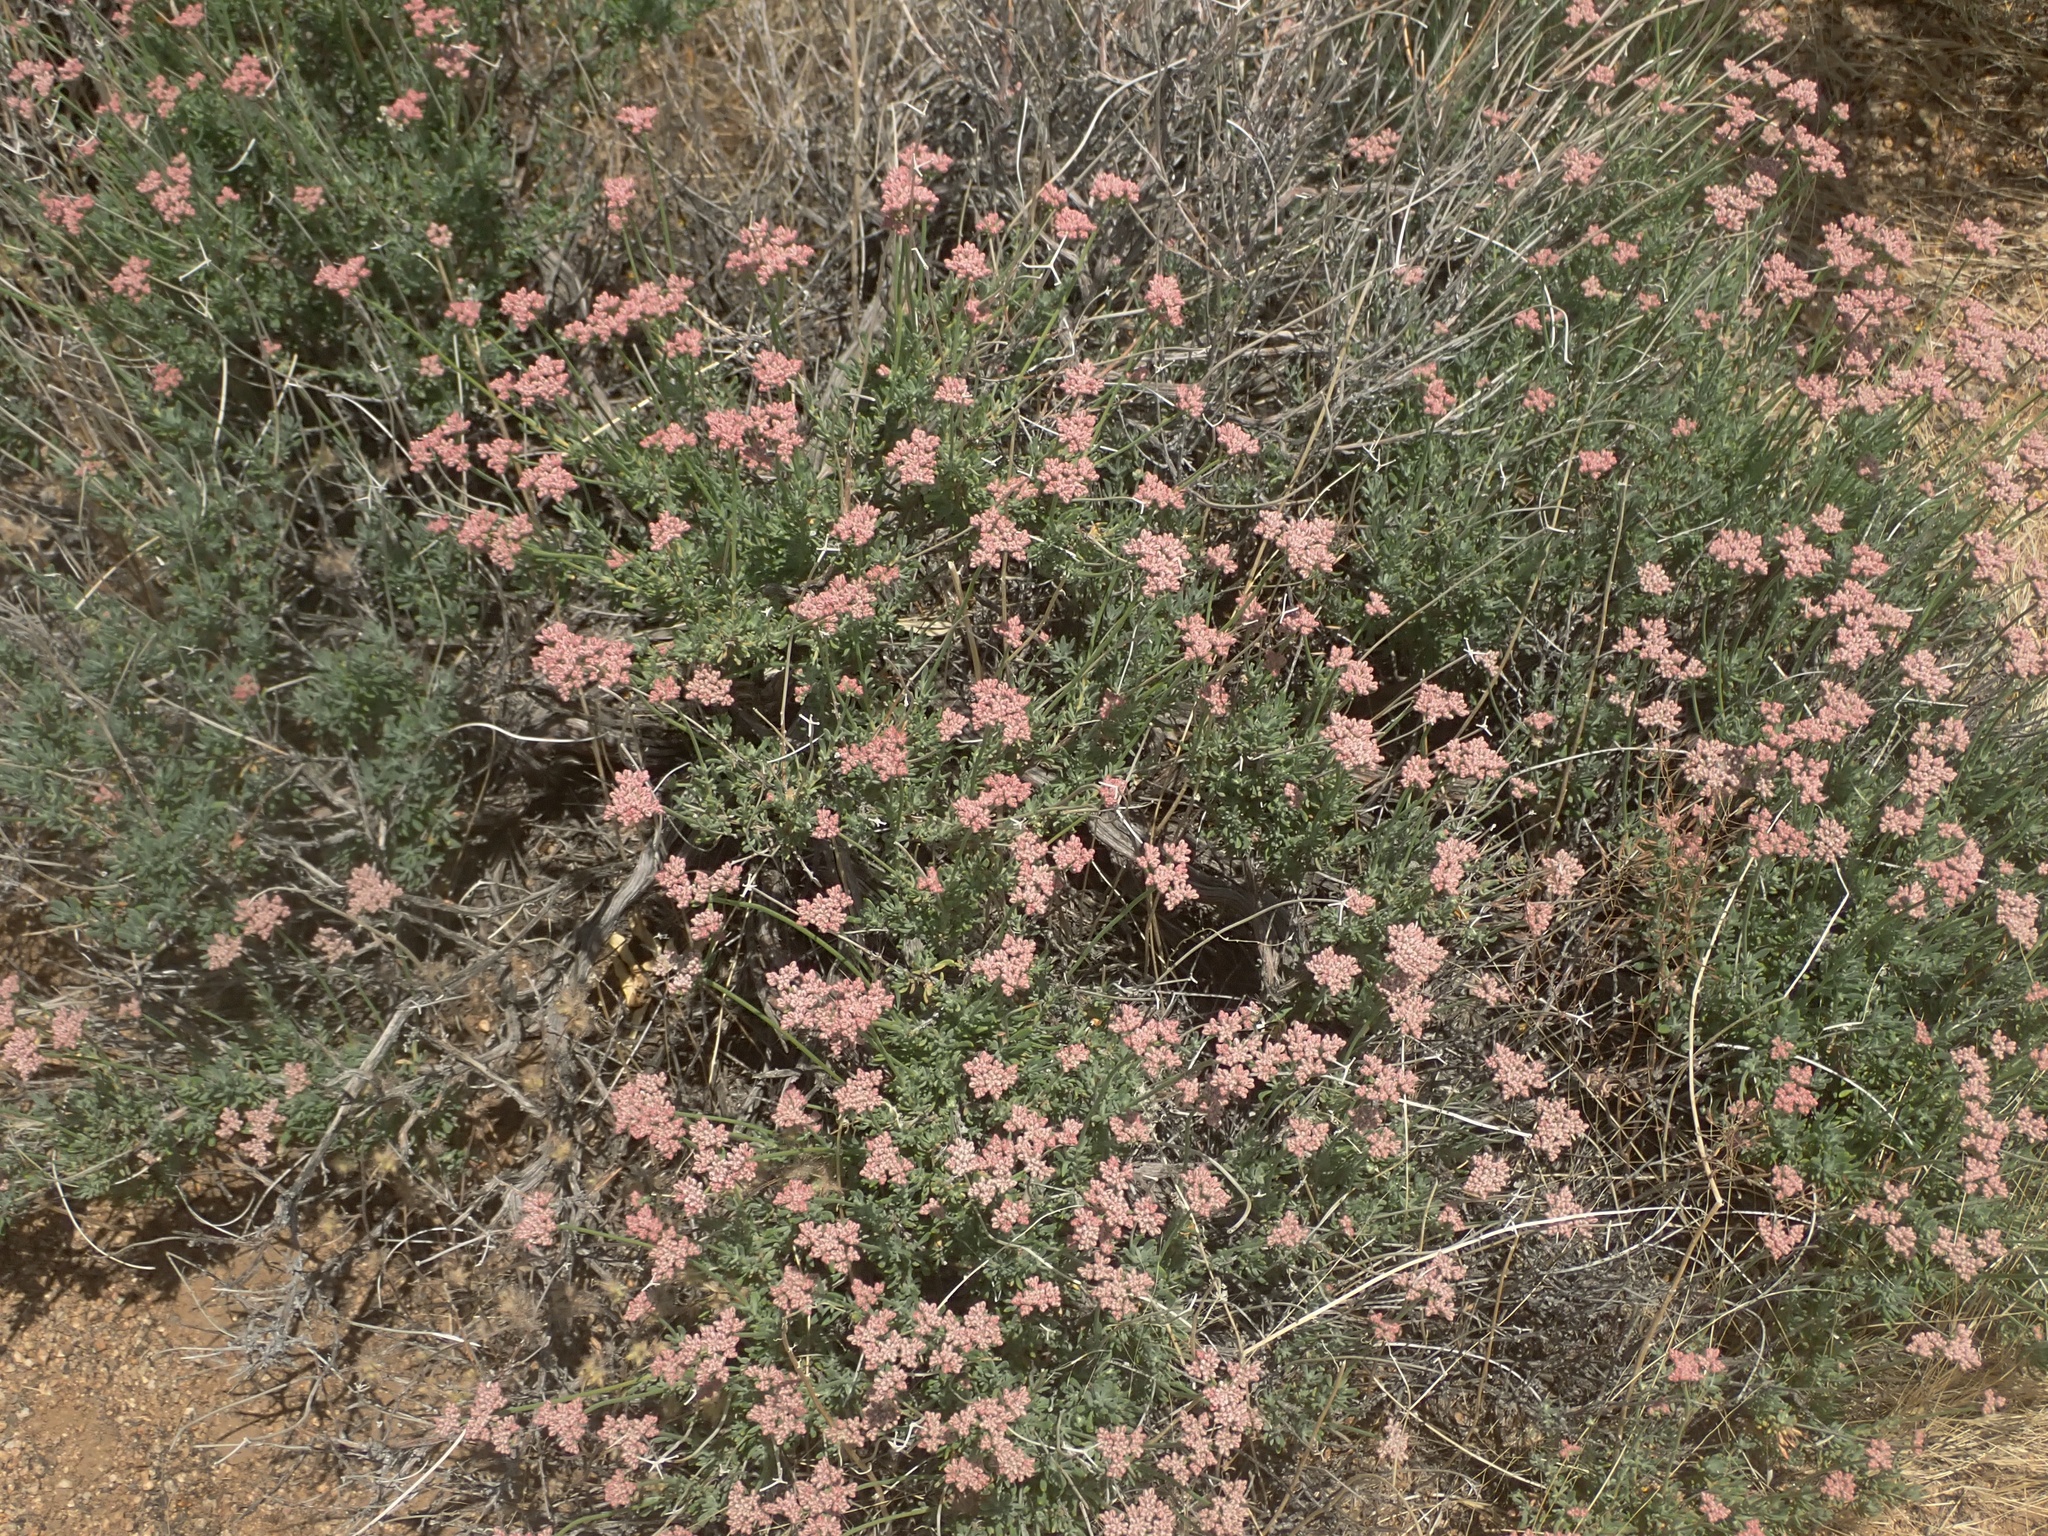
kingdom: Plantae
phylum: Tracheophyta
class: Magnoliopsida
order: Caryophyllales
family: Polygonaceae
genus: Eriogonum
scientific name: Eriogonum fasciculatum
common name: California wild buckwheat
